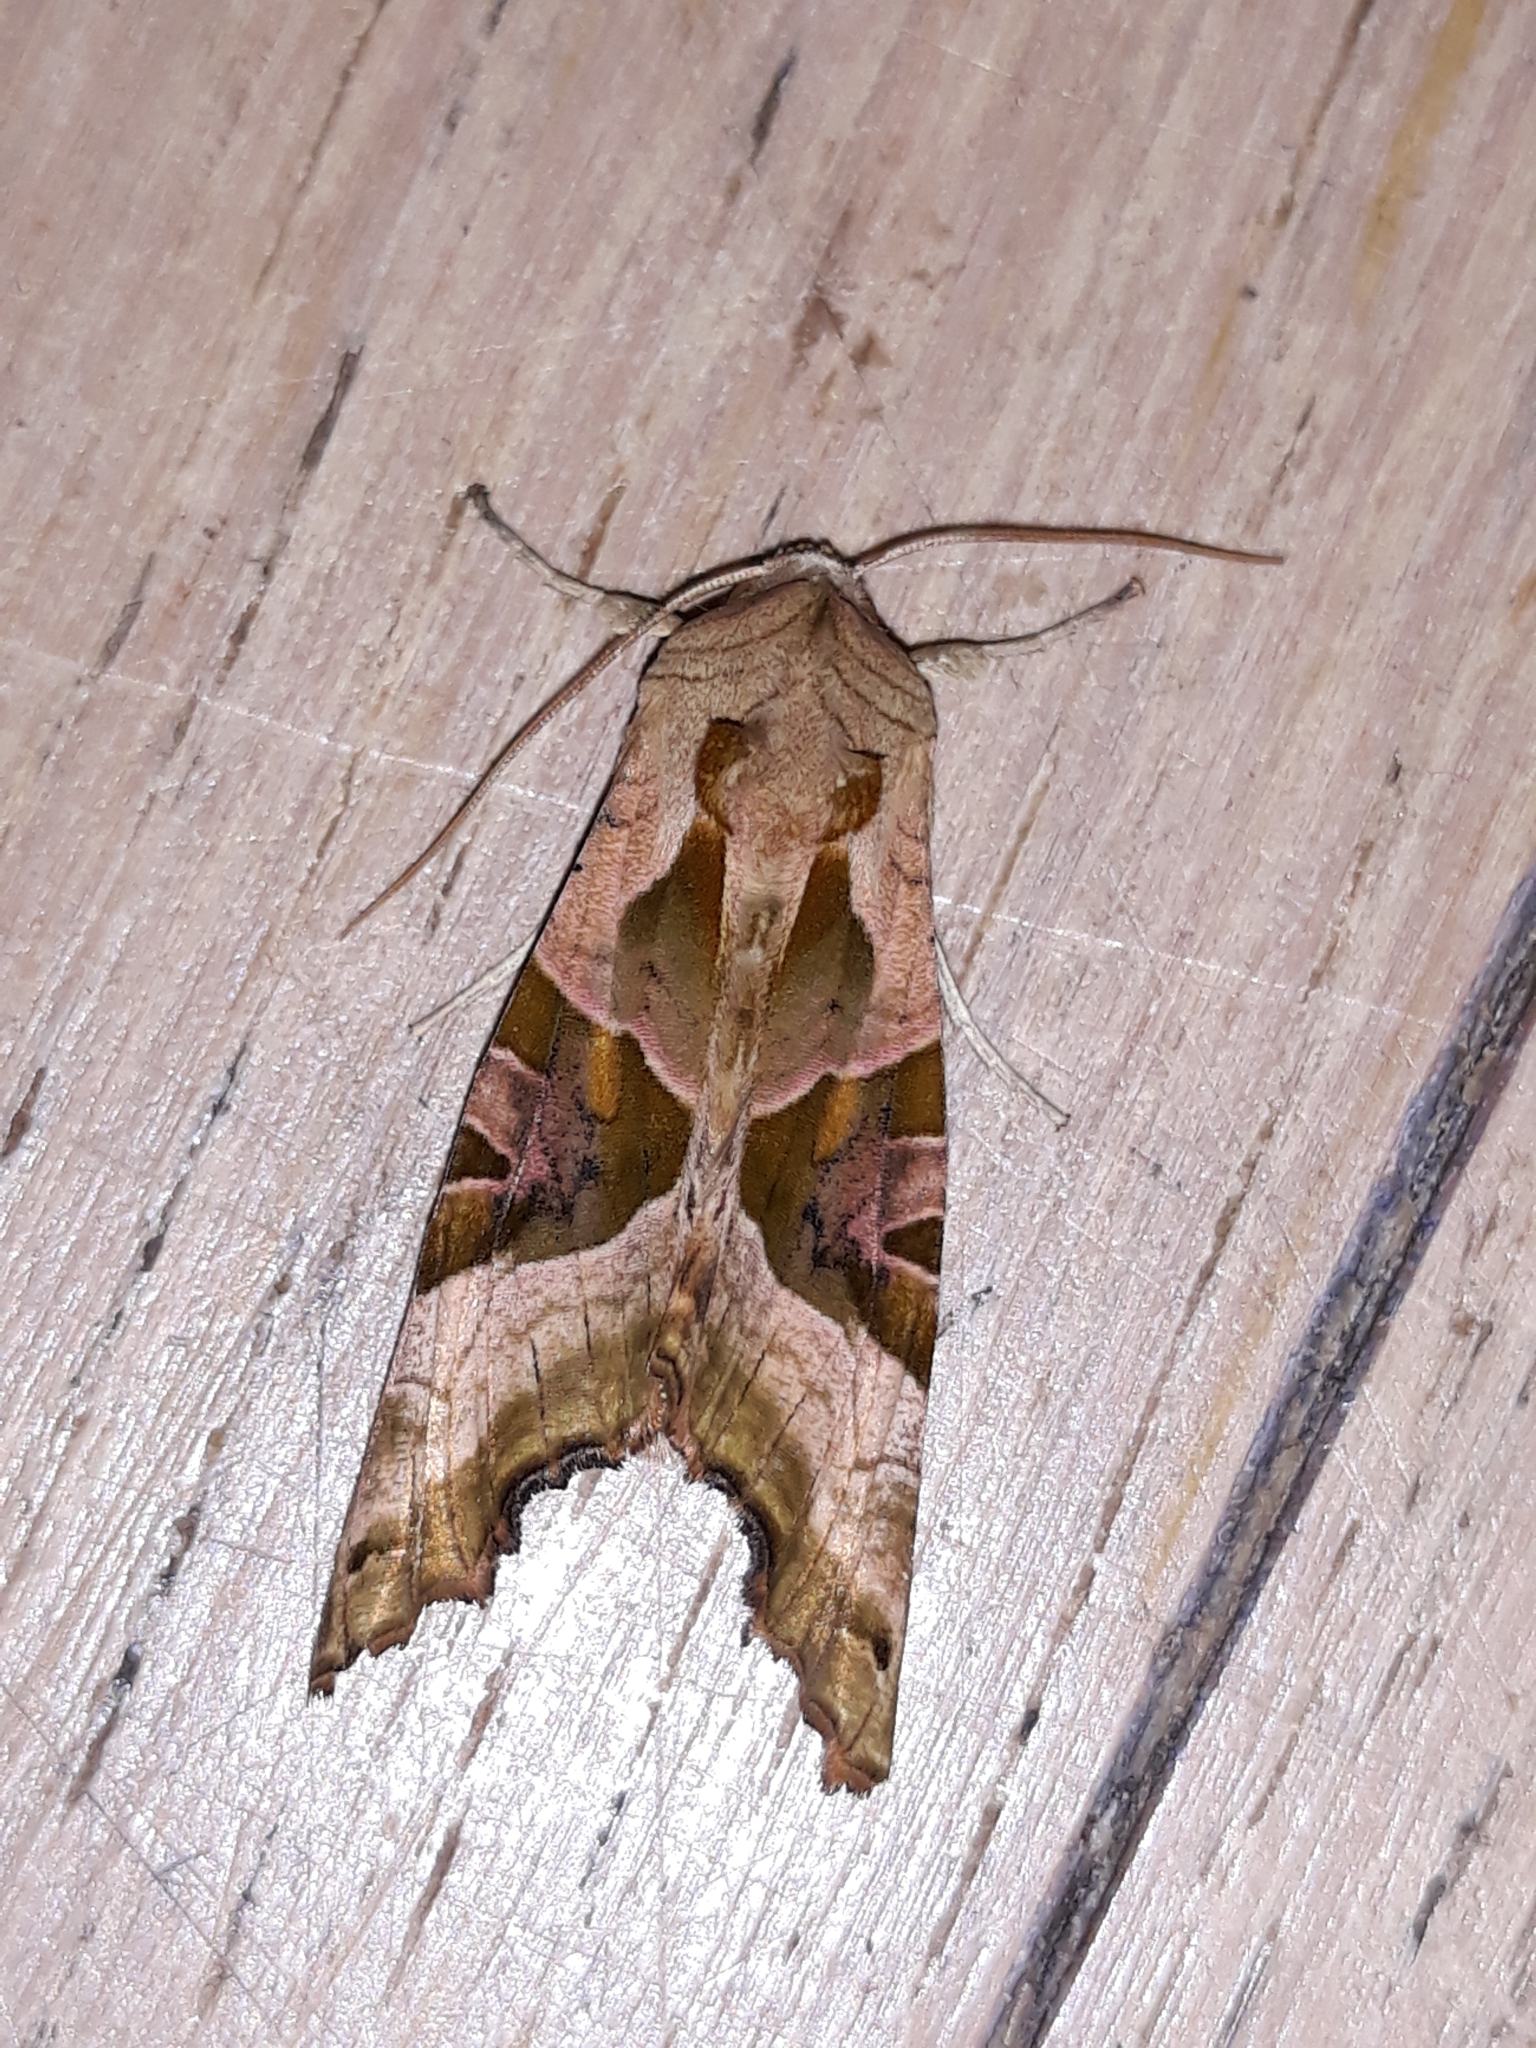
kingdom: Animalia
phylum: Arthropoda
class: Insecta
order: Lepidoptera
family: Noctuidae
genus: Phlogophora
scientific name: Phlogophora meticulosa
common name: Angle shades
